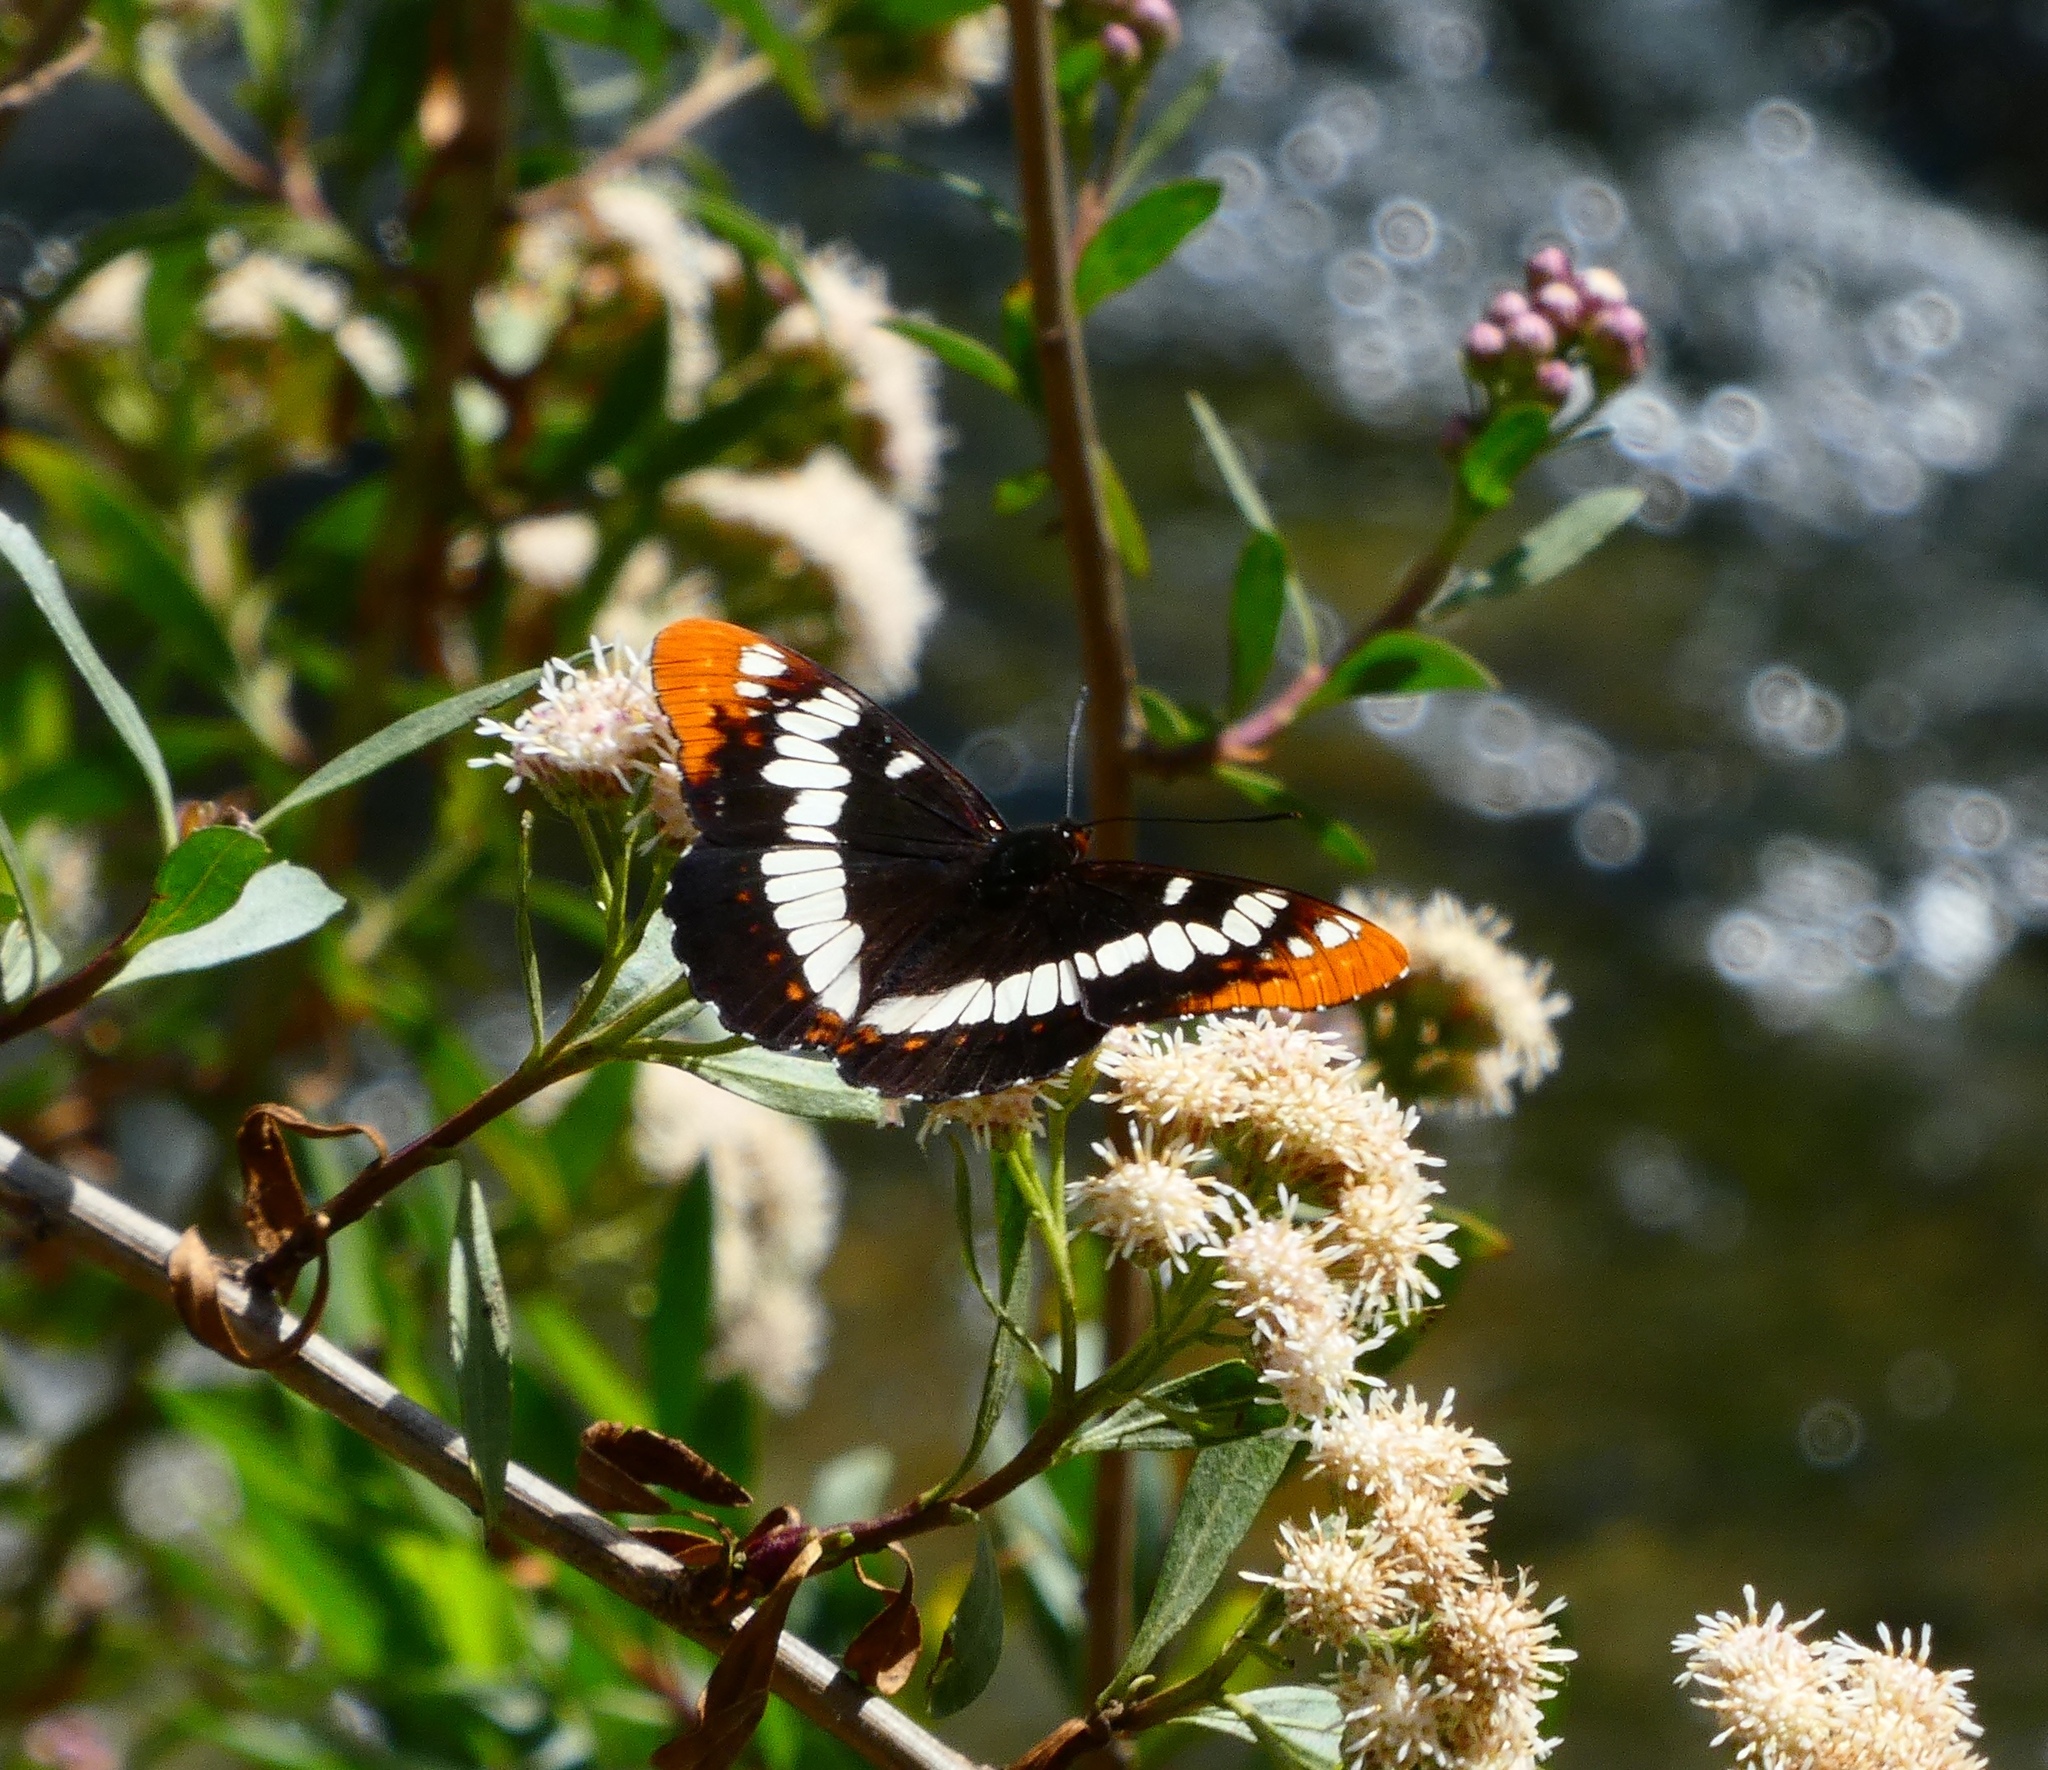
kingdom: Animalia
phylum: Arthropoda
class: Insecta
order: Lepidoptera
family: Nymphalidae
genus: Limenitis
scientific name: Limenitis lorquini
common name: Lorquin's admiral
